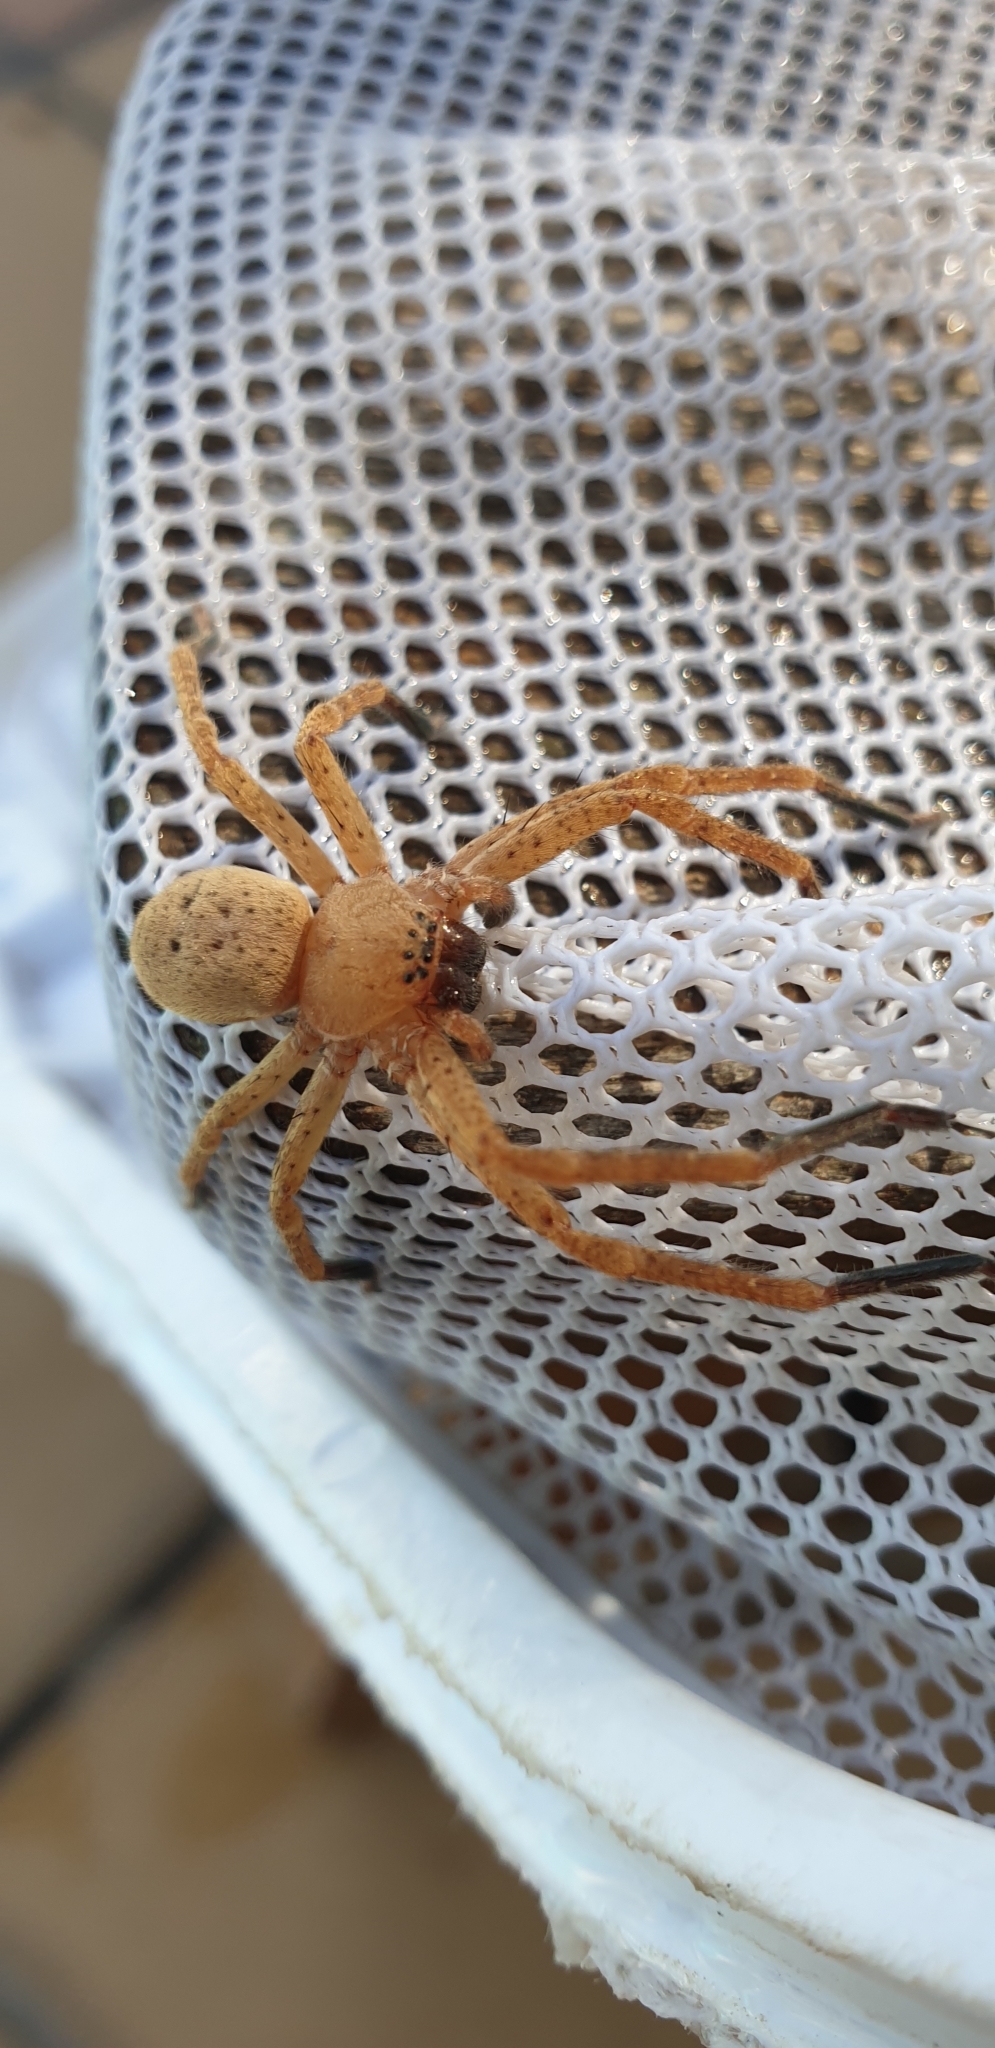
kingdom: Animalia
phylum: Arthropoda
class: Arachnida
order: Araneae
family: Sparassidae
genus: Olios
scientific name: Olios argelasius
